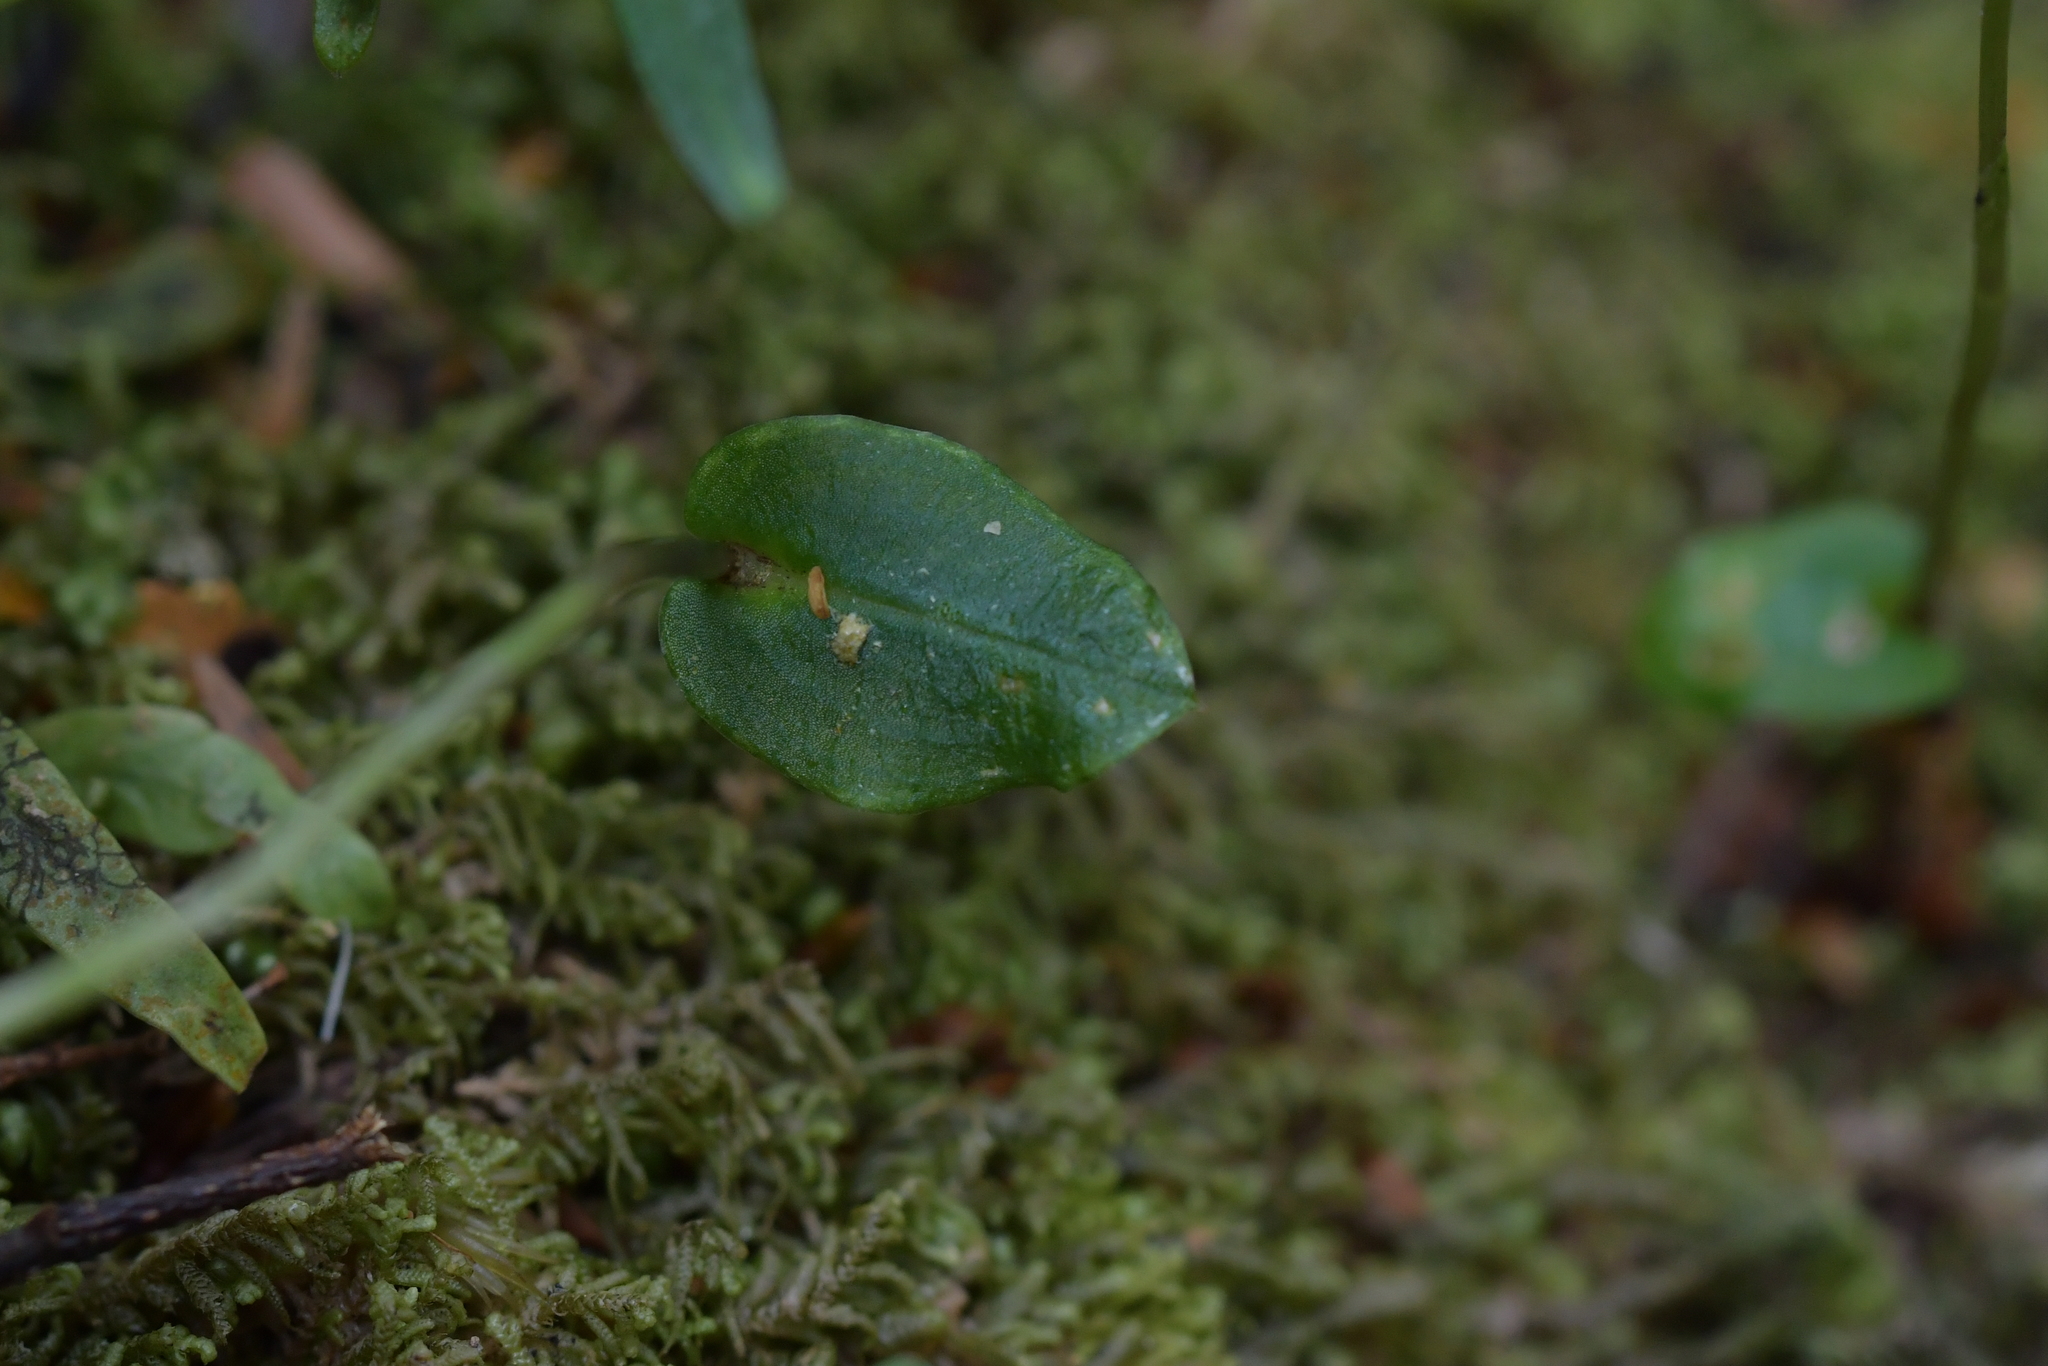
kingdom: Plantae
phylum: Tracheophyta
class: Liliopsida
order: Asparagales
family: Orchidaceae
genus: Adenochilus
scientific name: Adenochilus gracilis
